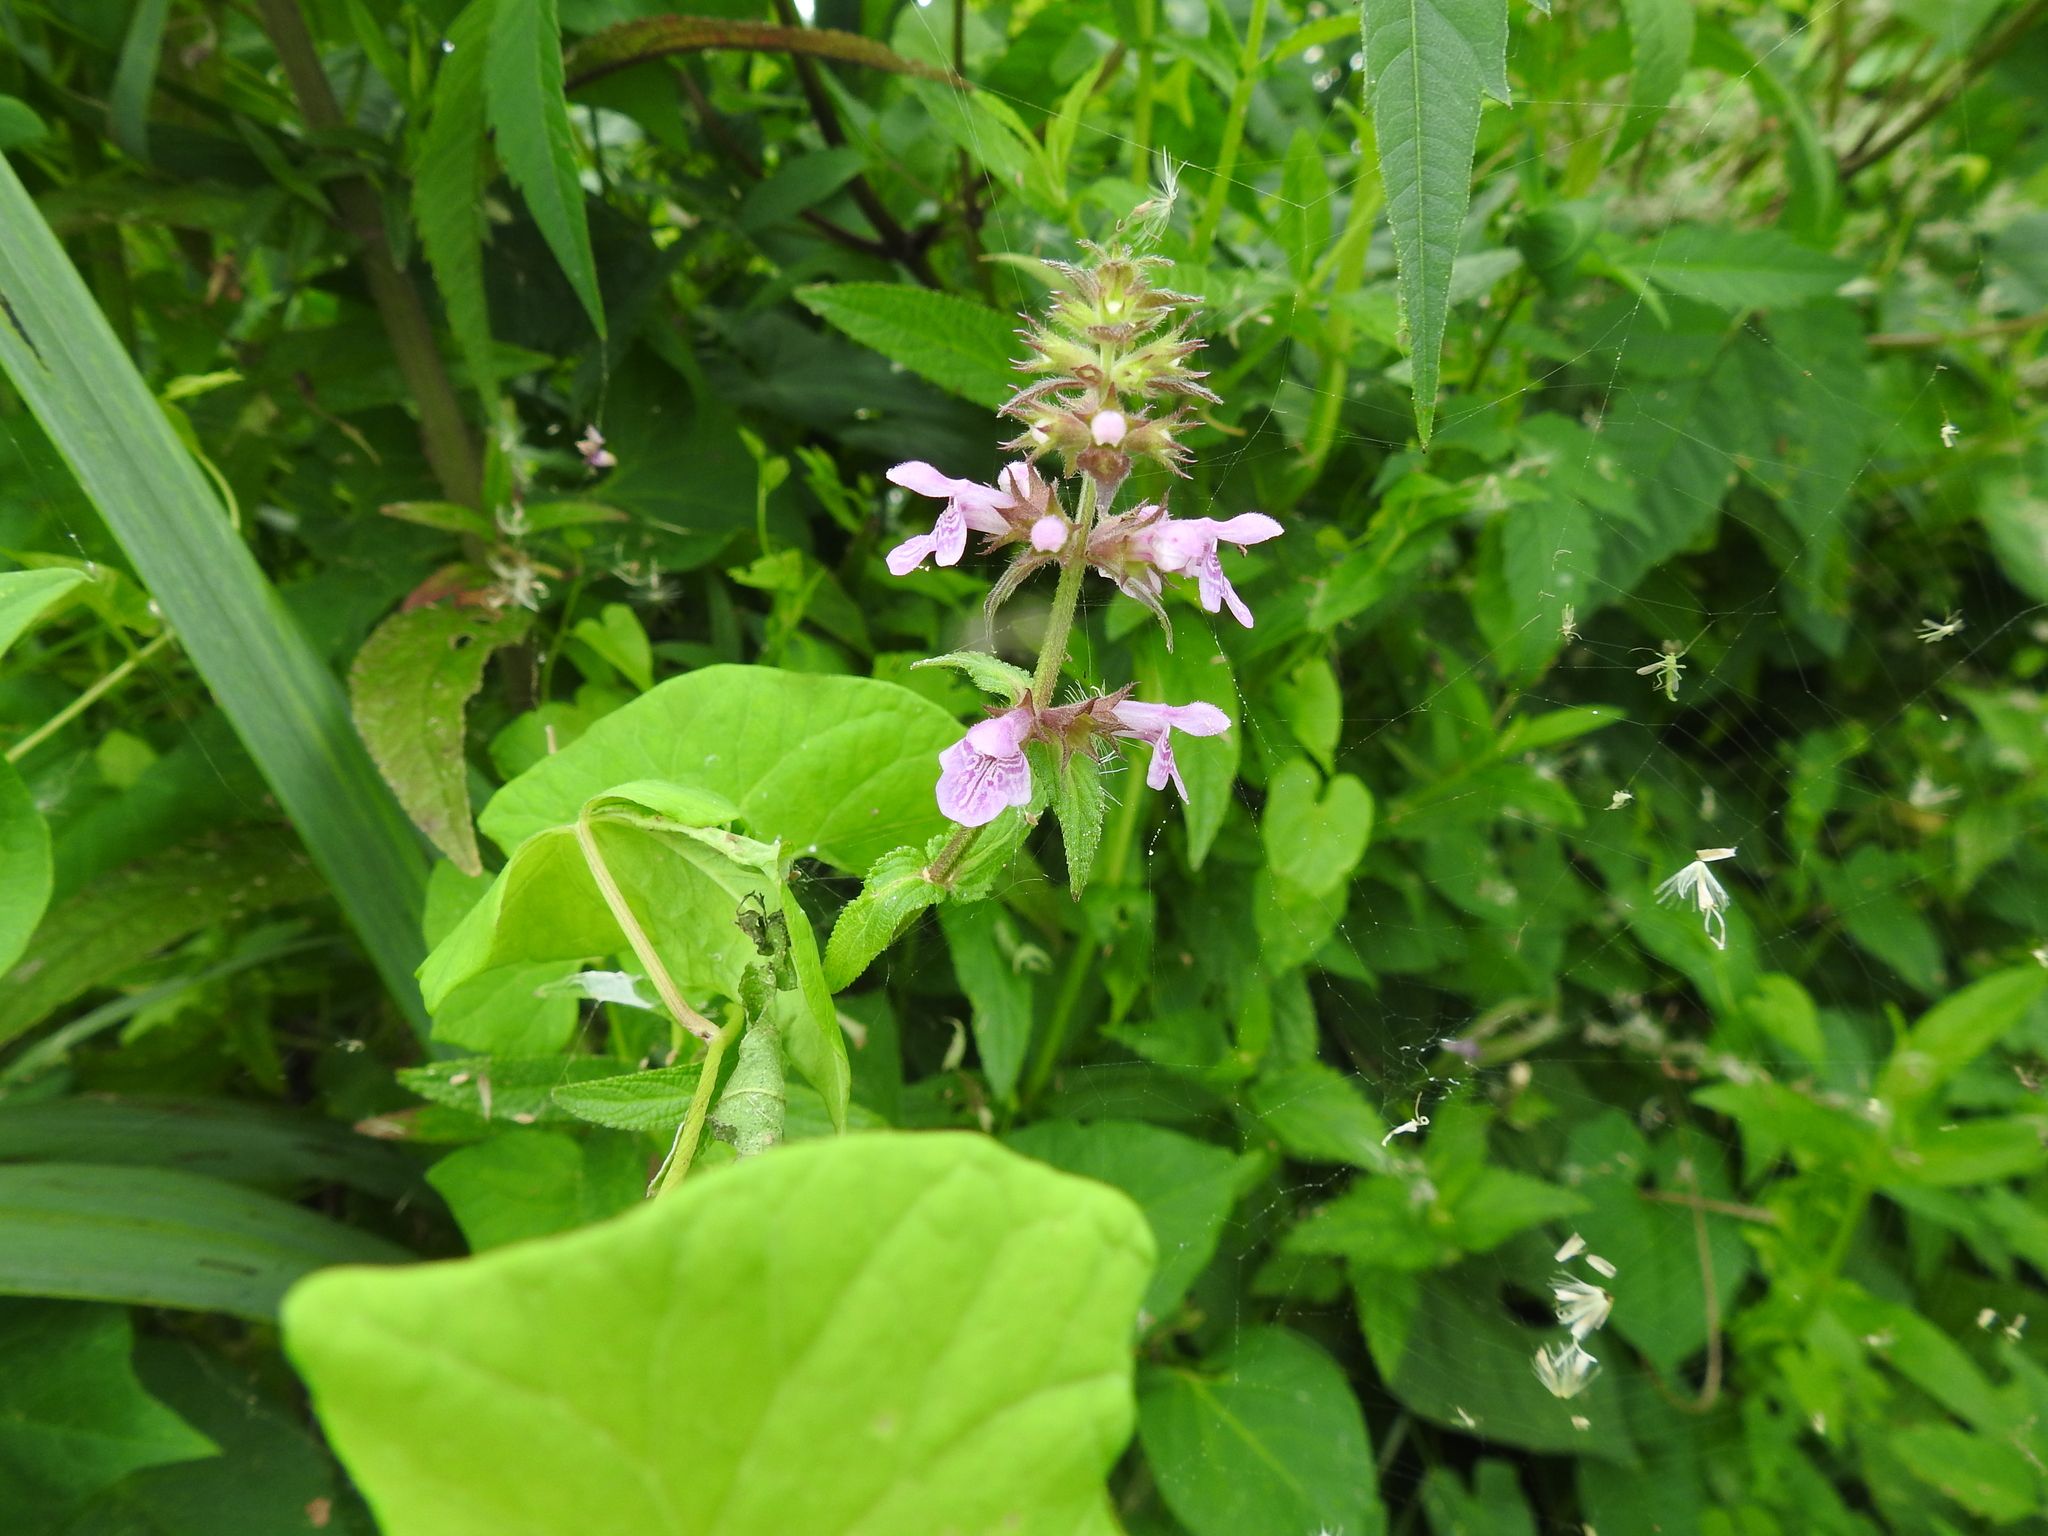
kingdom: Plantae
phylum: Tracheophyta
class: Magnoliopsida
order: Lamiales
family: Lamiaceae
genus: Stachys
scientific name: Stachys palustris
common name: Marsh woundwort
